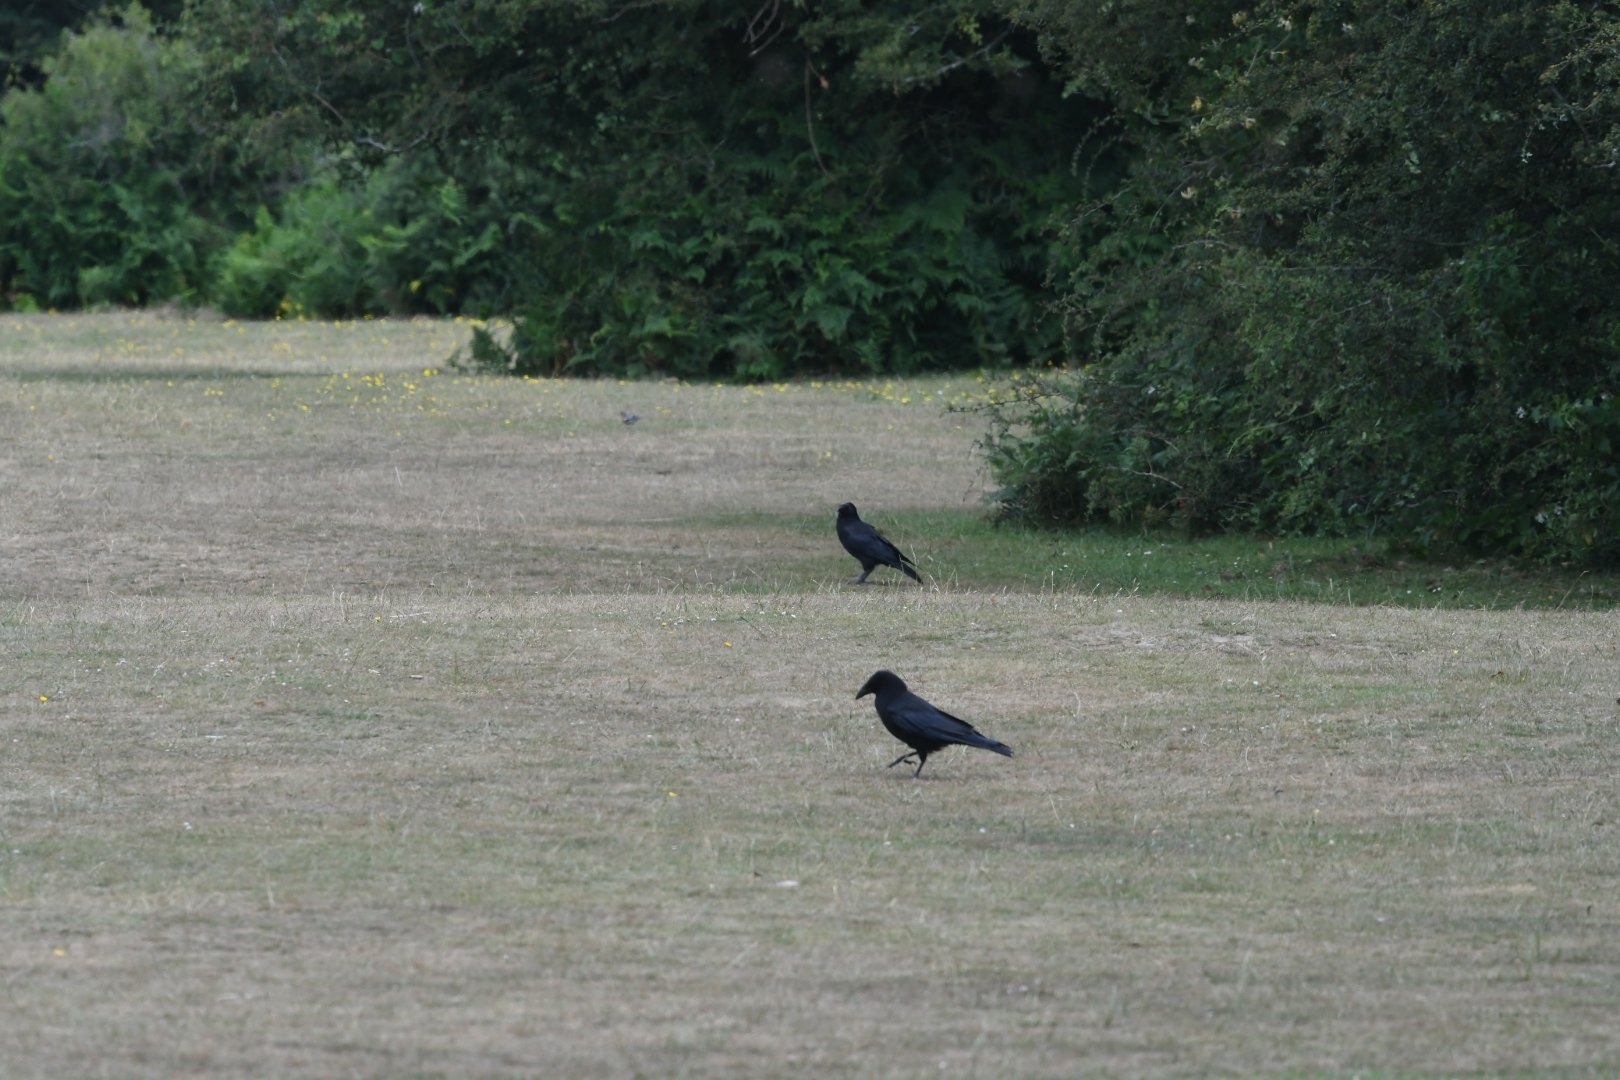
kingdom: Animalia
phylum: Chordata
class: Aves
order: Passeriformes
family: Corvidae
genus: Corvus
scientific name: Corvus corone
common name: Carrion crow
